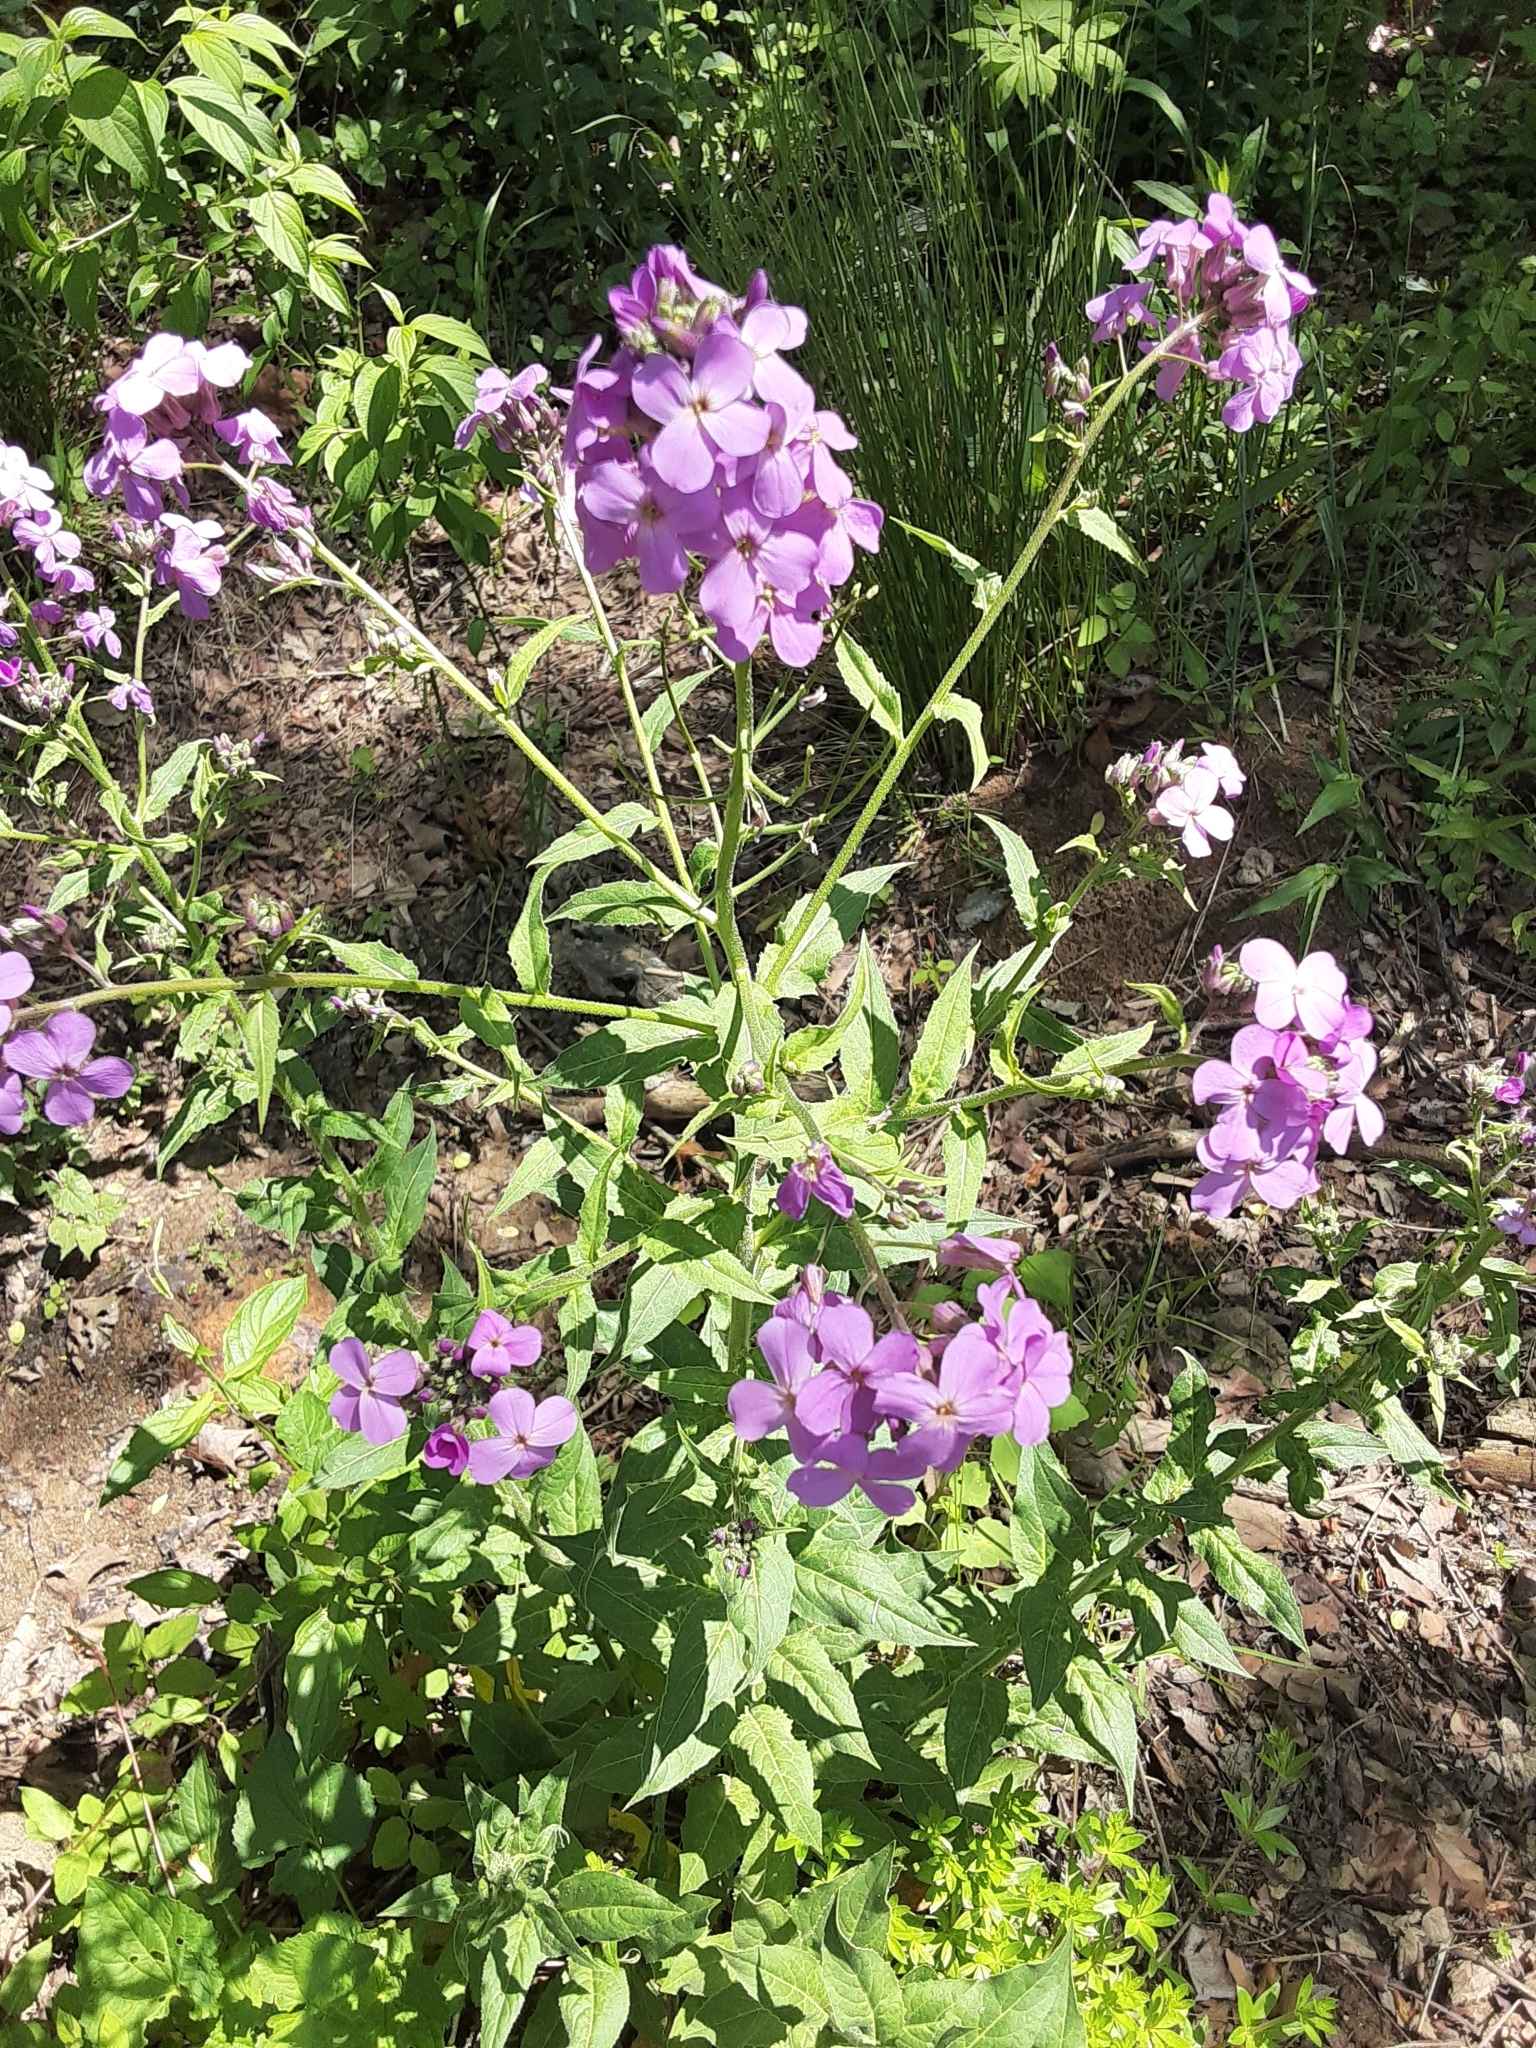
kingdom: Plantae
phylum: Tracheophyta
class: Magnoliopsida
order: Brassicales
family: Brassicaceae
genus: Hesperis
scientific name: Hesperis matronalis
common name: Dame's-violet
